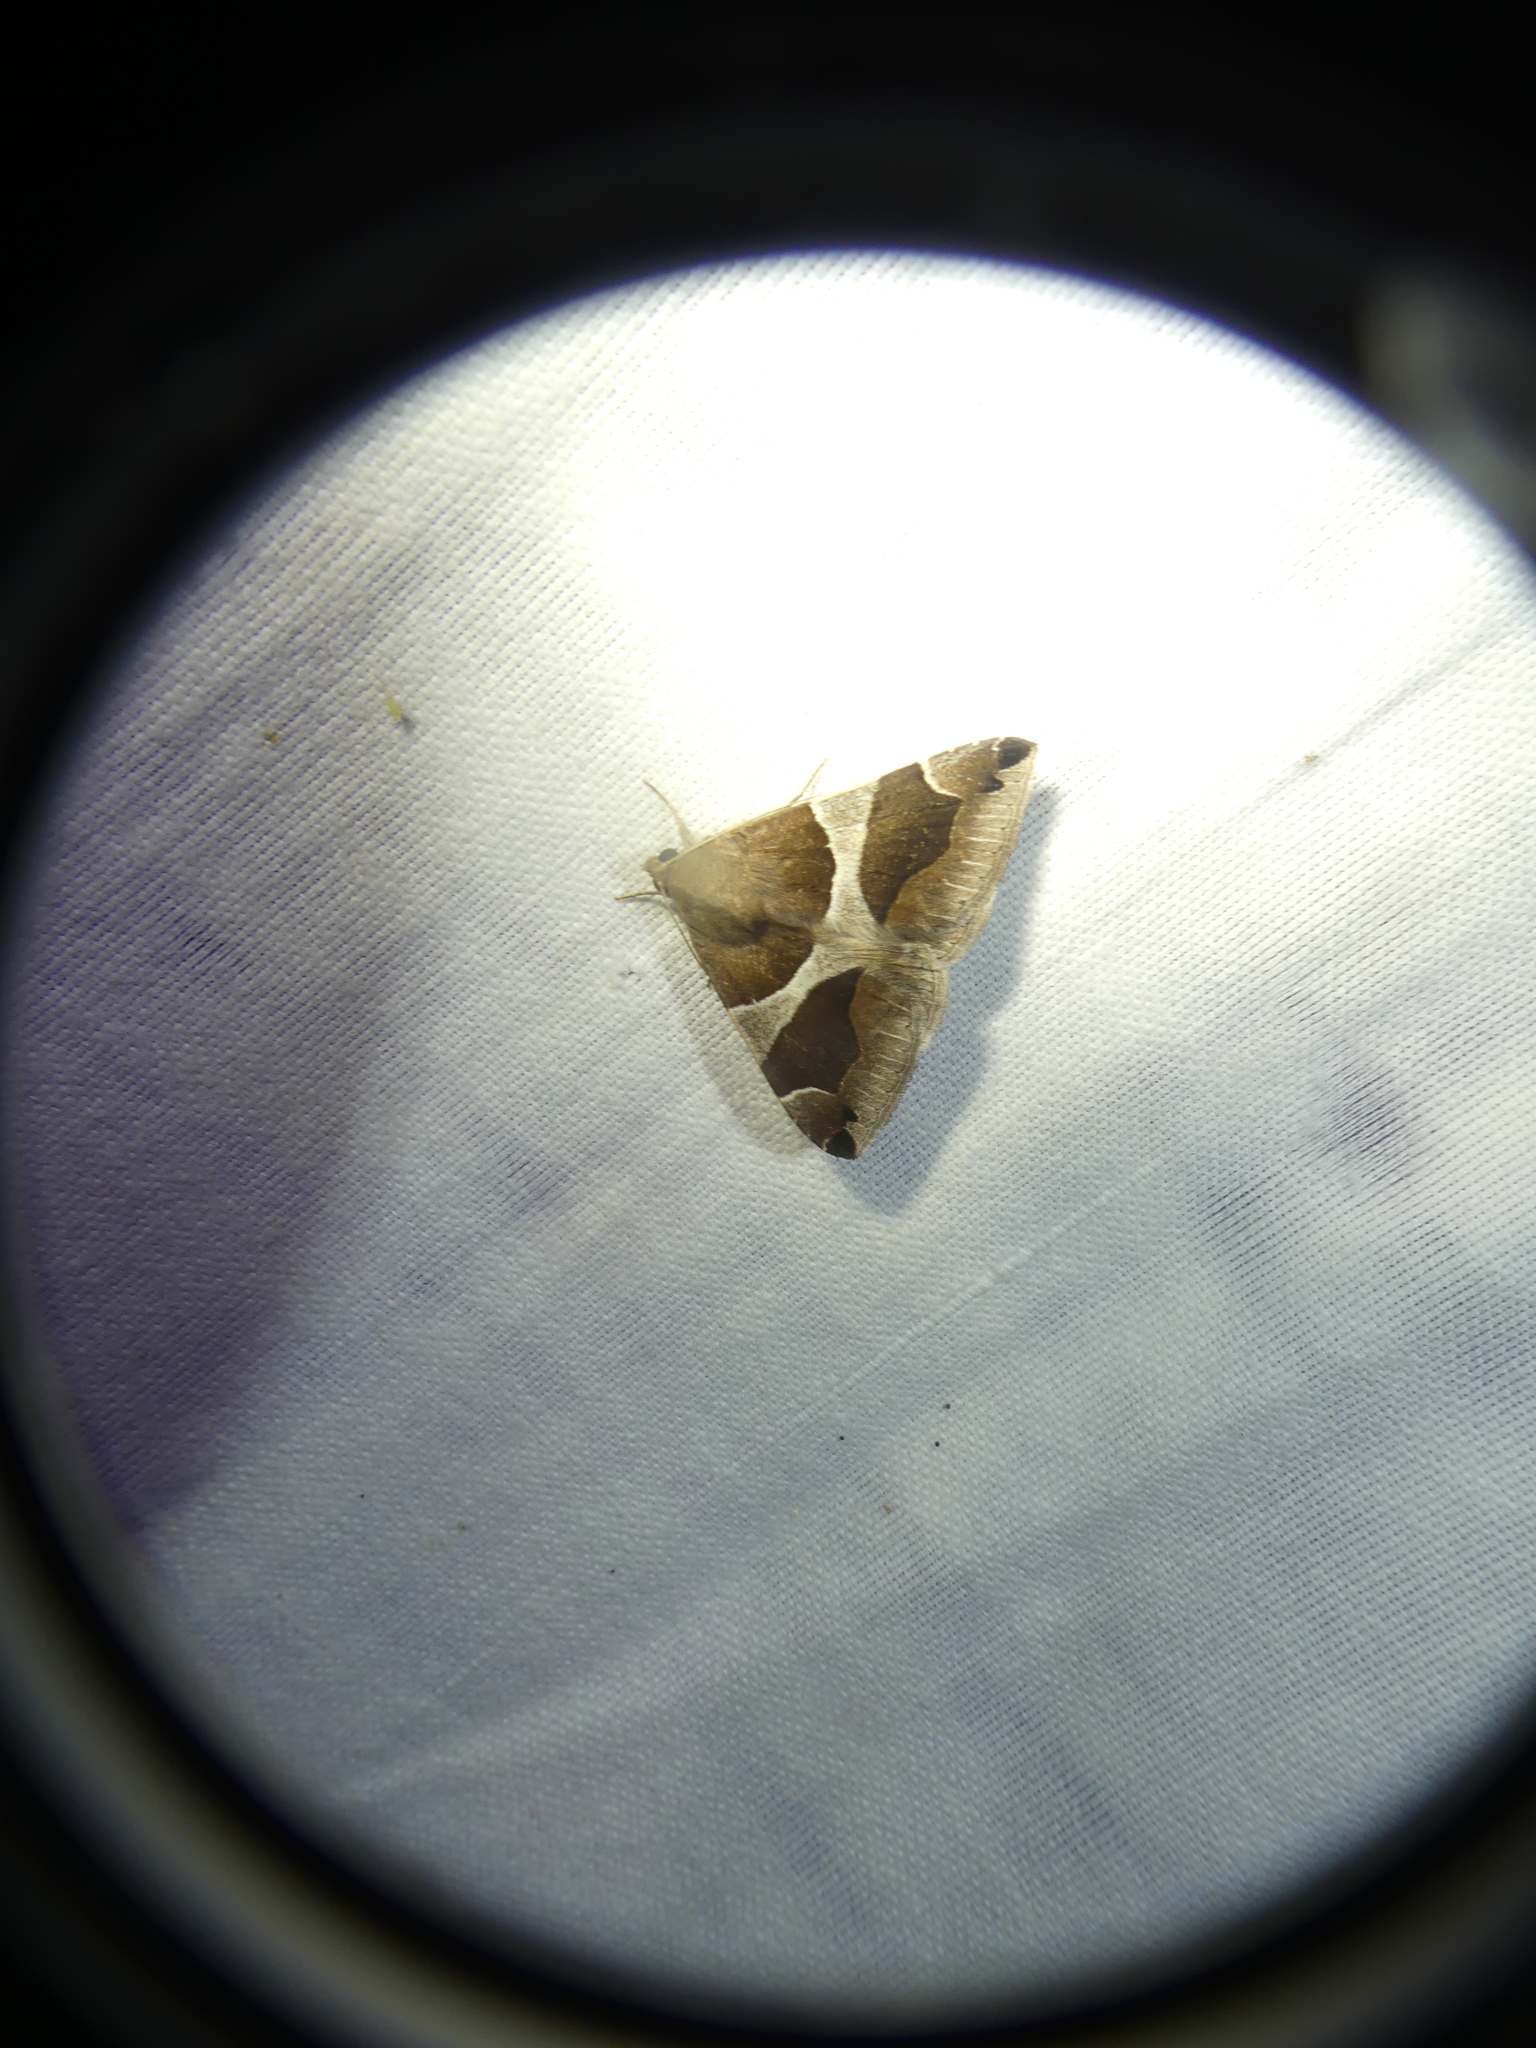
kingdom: Animalia
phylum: Arthropoda
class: Insecta
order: Lepidoptera
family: Erebidae
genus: Dysgonia
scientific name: Dysgonia algira
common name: Passenger
